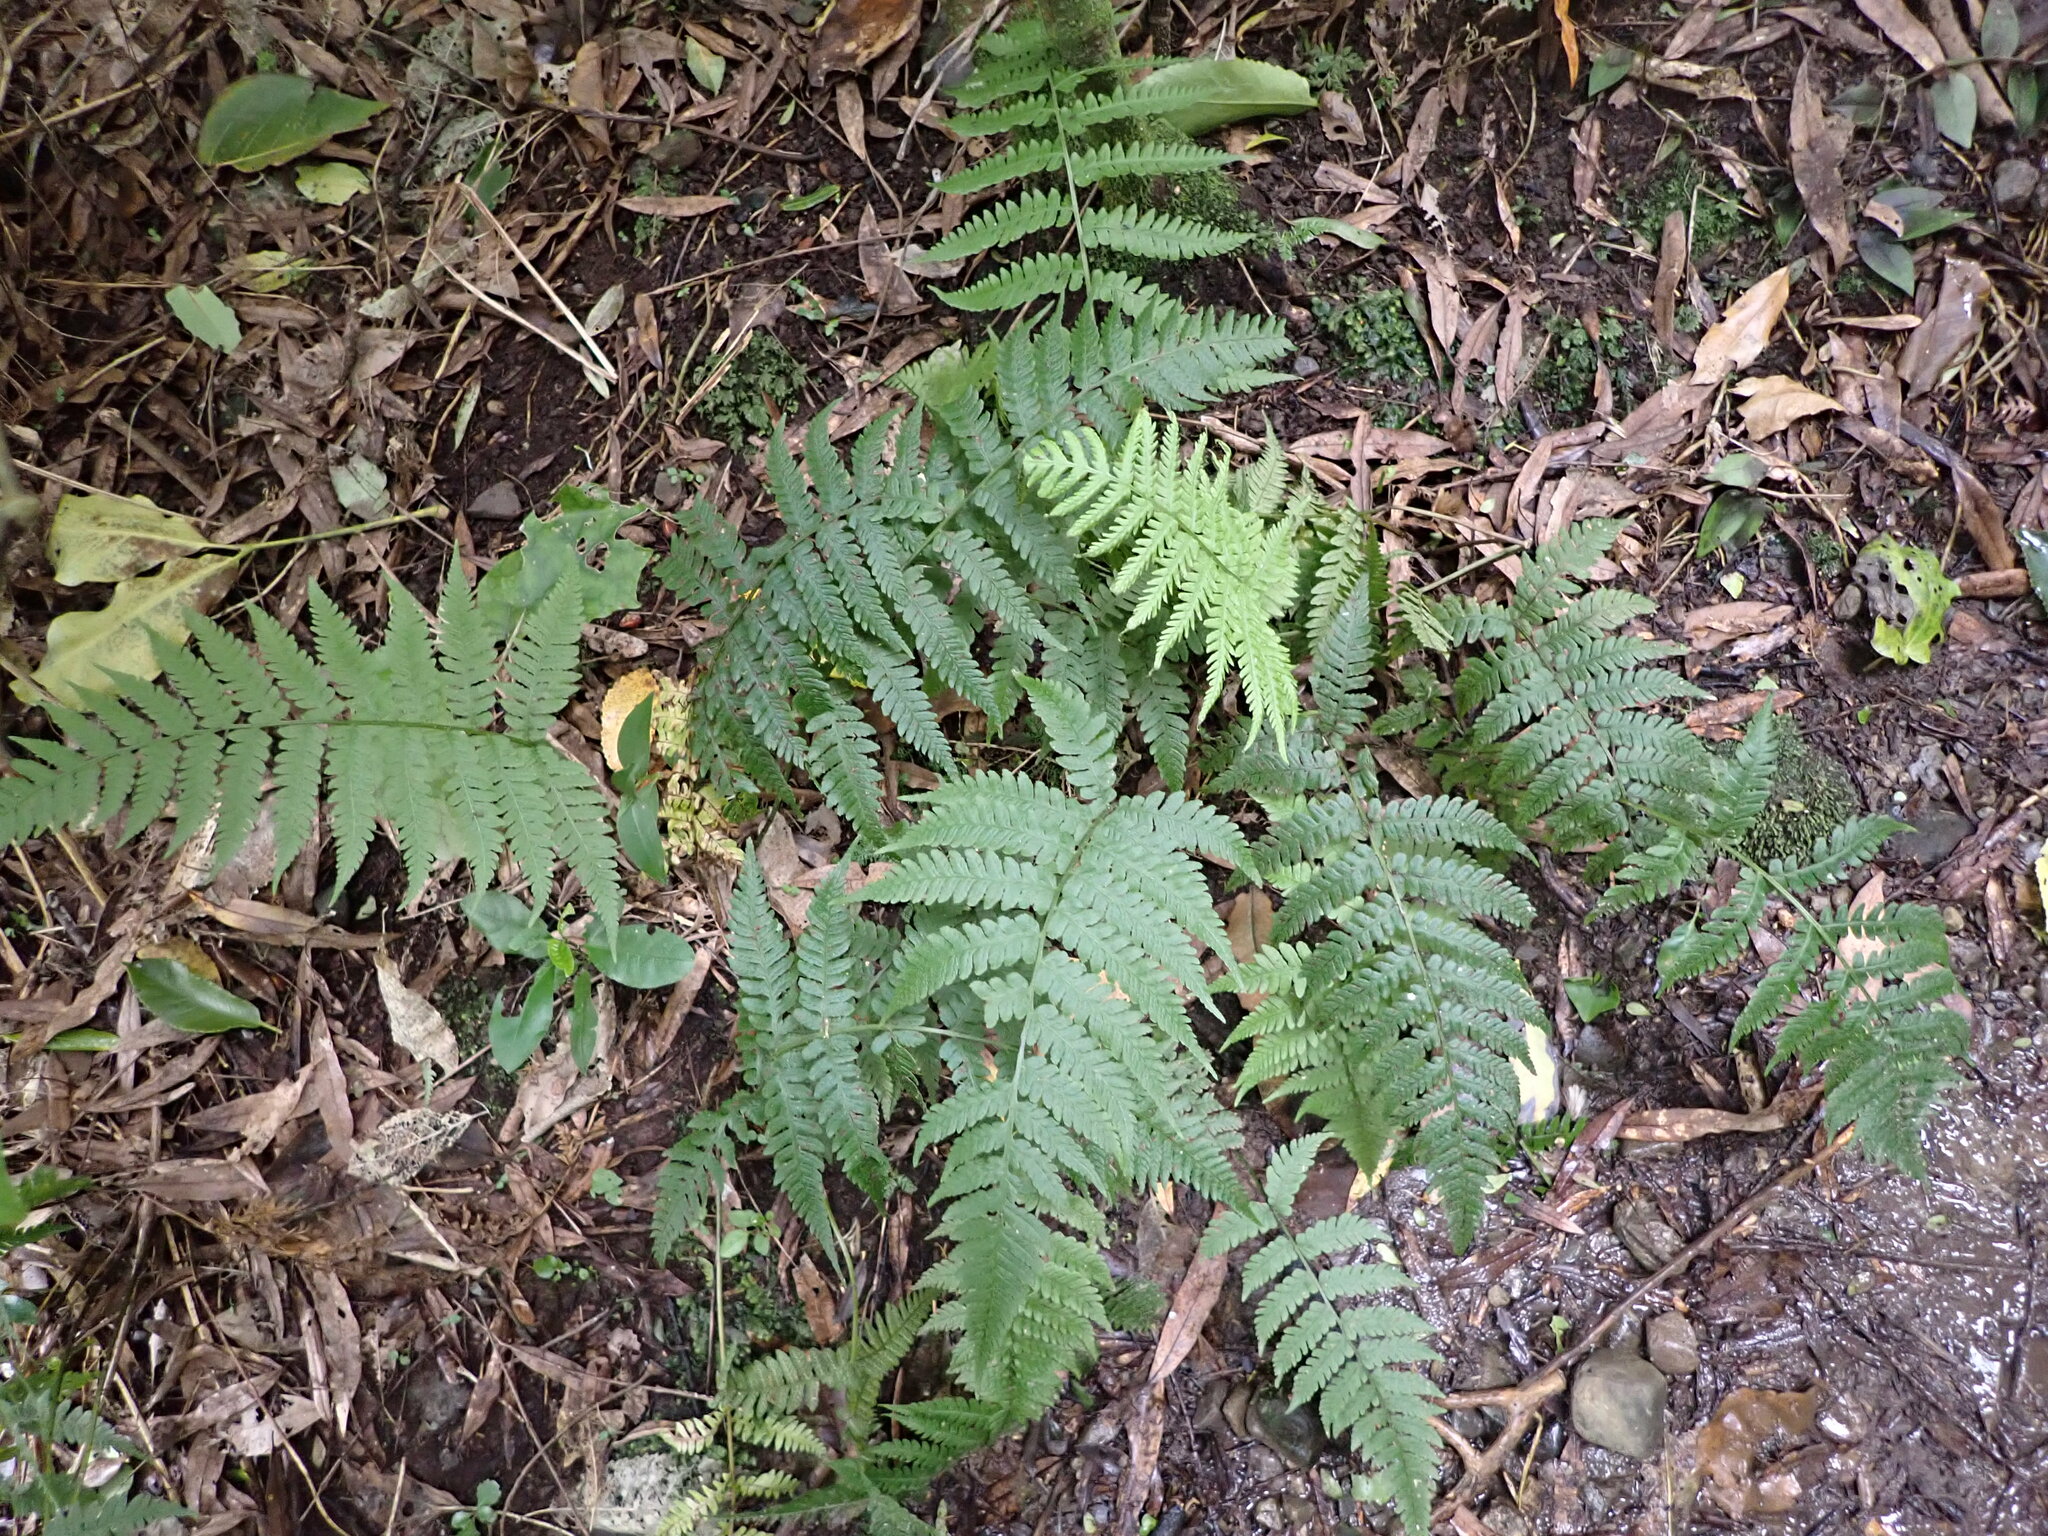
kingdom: Plantae
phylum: Tracheophyta
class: Polypodiopsida
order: Polypodiales
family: Athyriaceae
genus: Deparia
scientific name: Deparia petersenii
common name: Japanese false spleenwort
